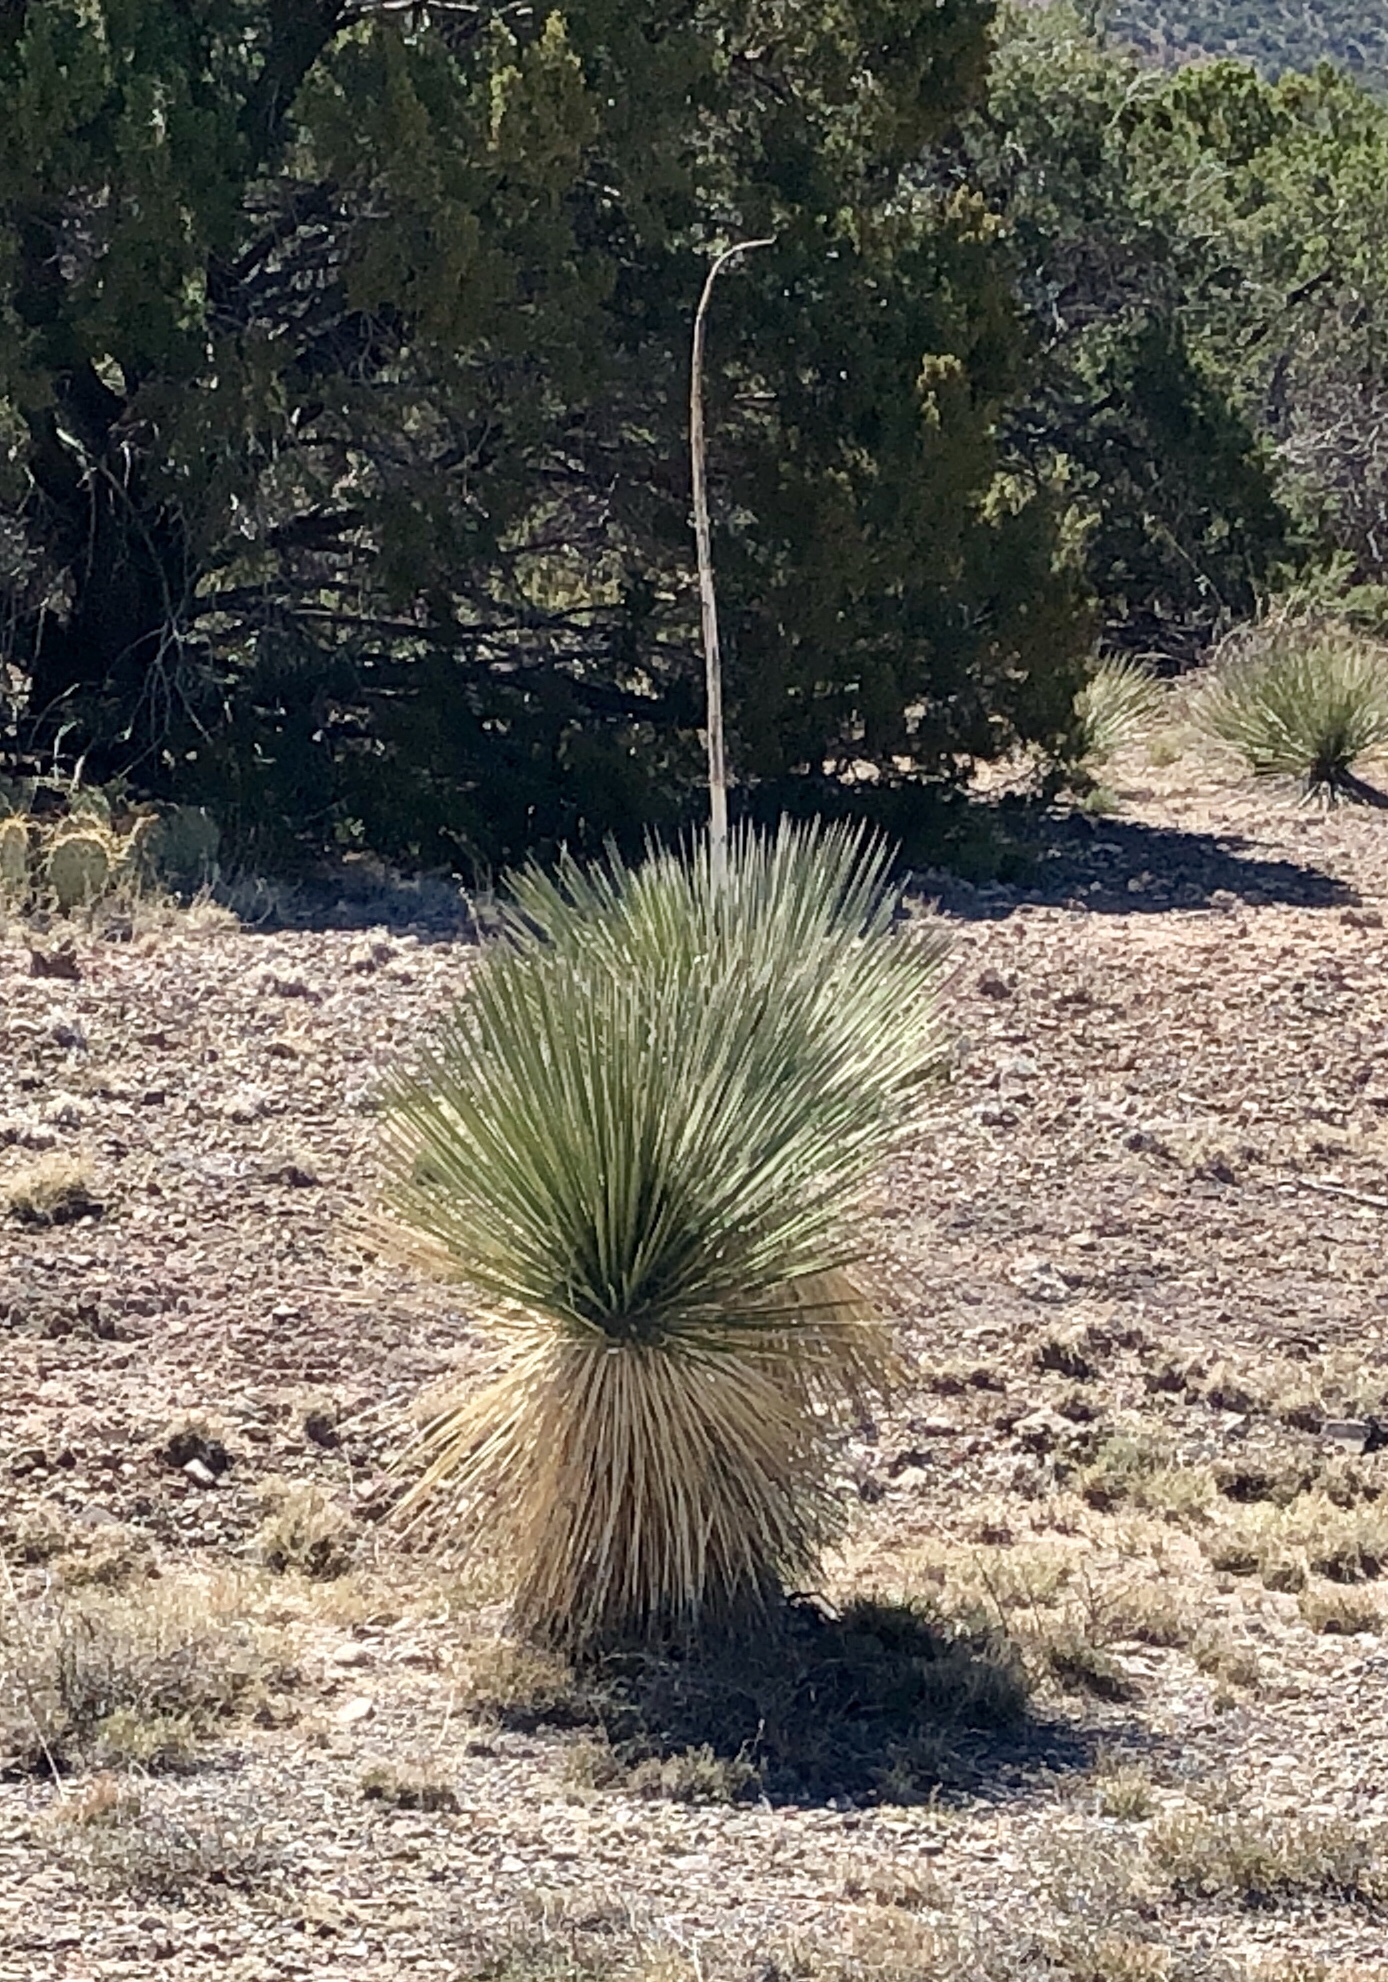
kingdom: Plantae
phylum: Tracheophyta
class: Liliopsida
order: Asparagales
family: Asparagaceae
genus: Yucca
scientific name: Yucca elata
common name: Palmella
